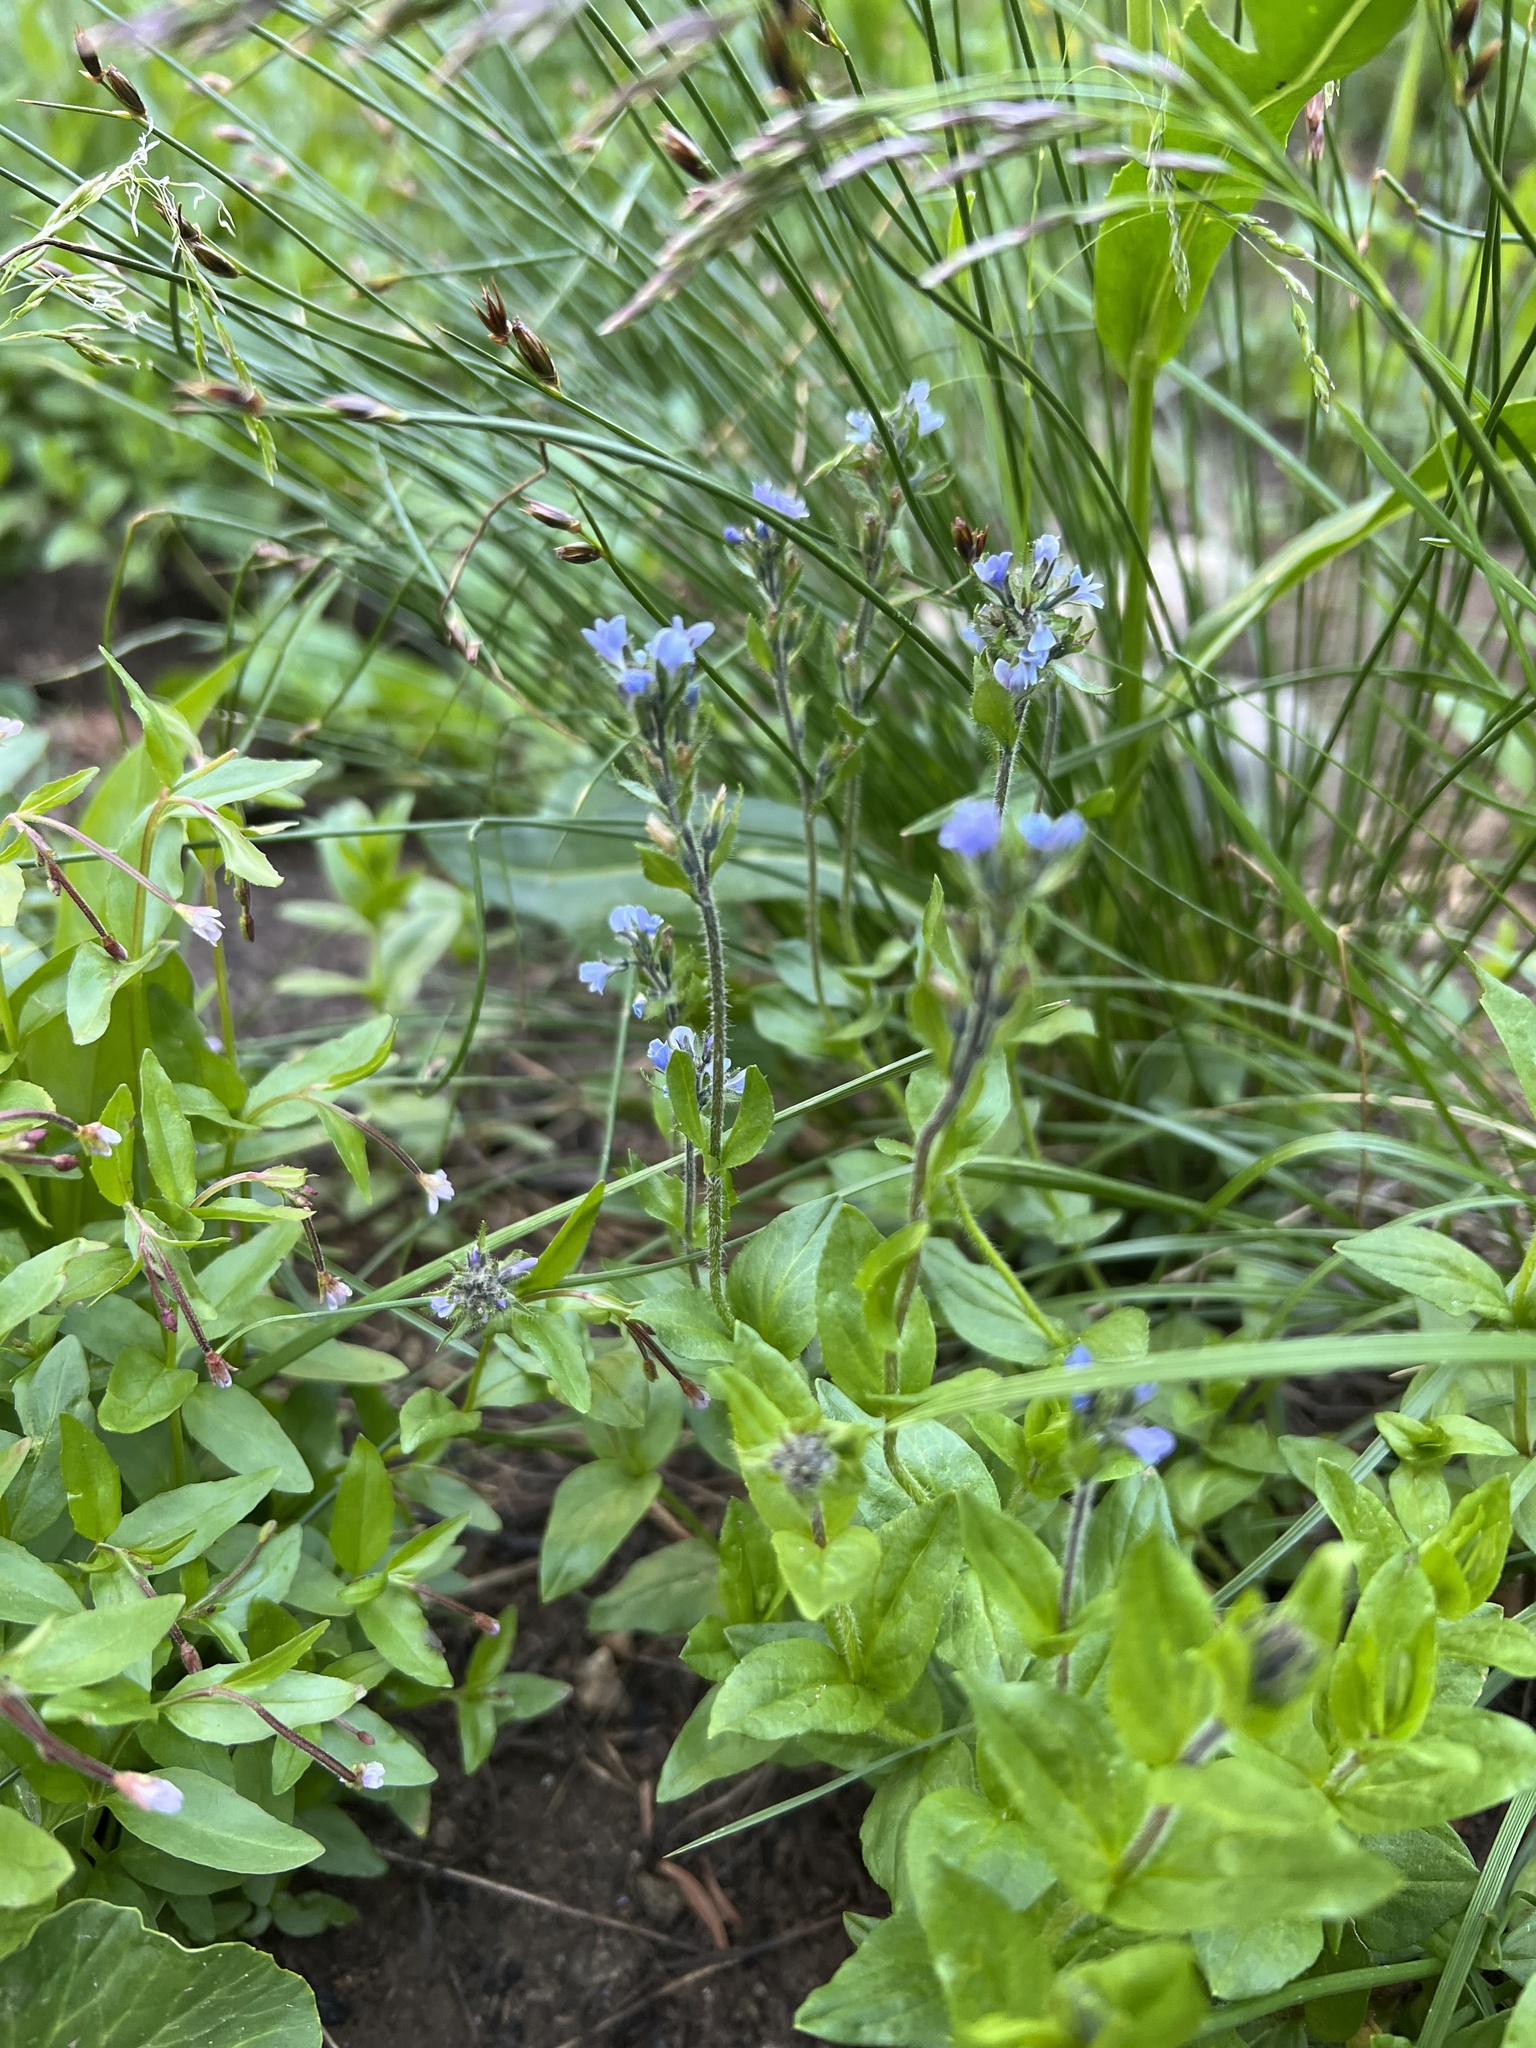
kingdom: Plantae
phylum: Tracheophyta
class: Magnoliopsida
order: Lamiales
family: Plantaginaceae
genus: Veronica
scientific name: Veronica wormskjoldii
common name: American alpine speedwell
